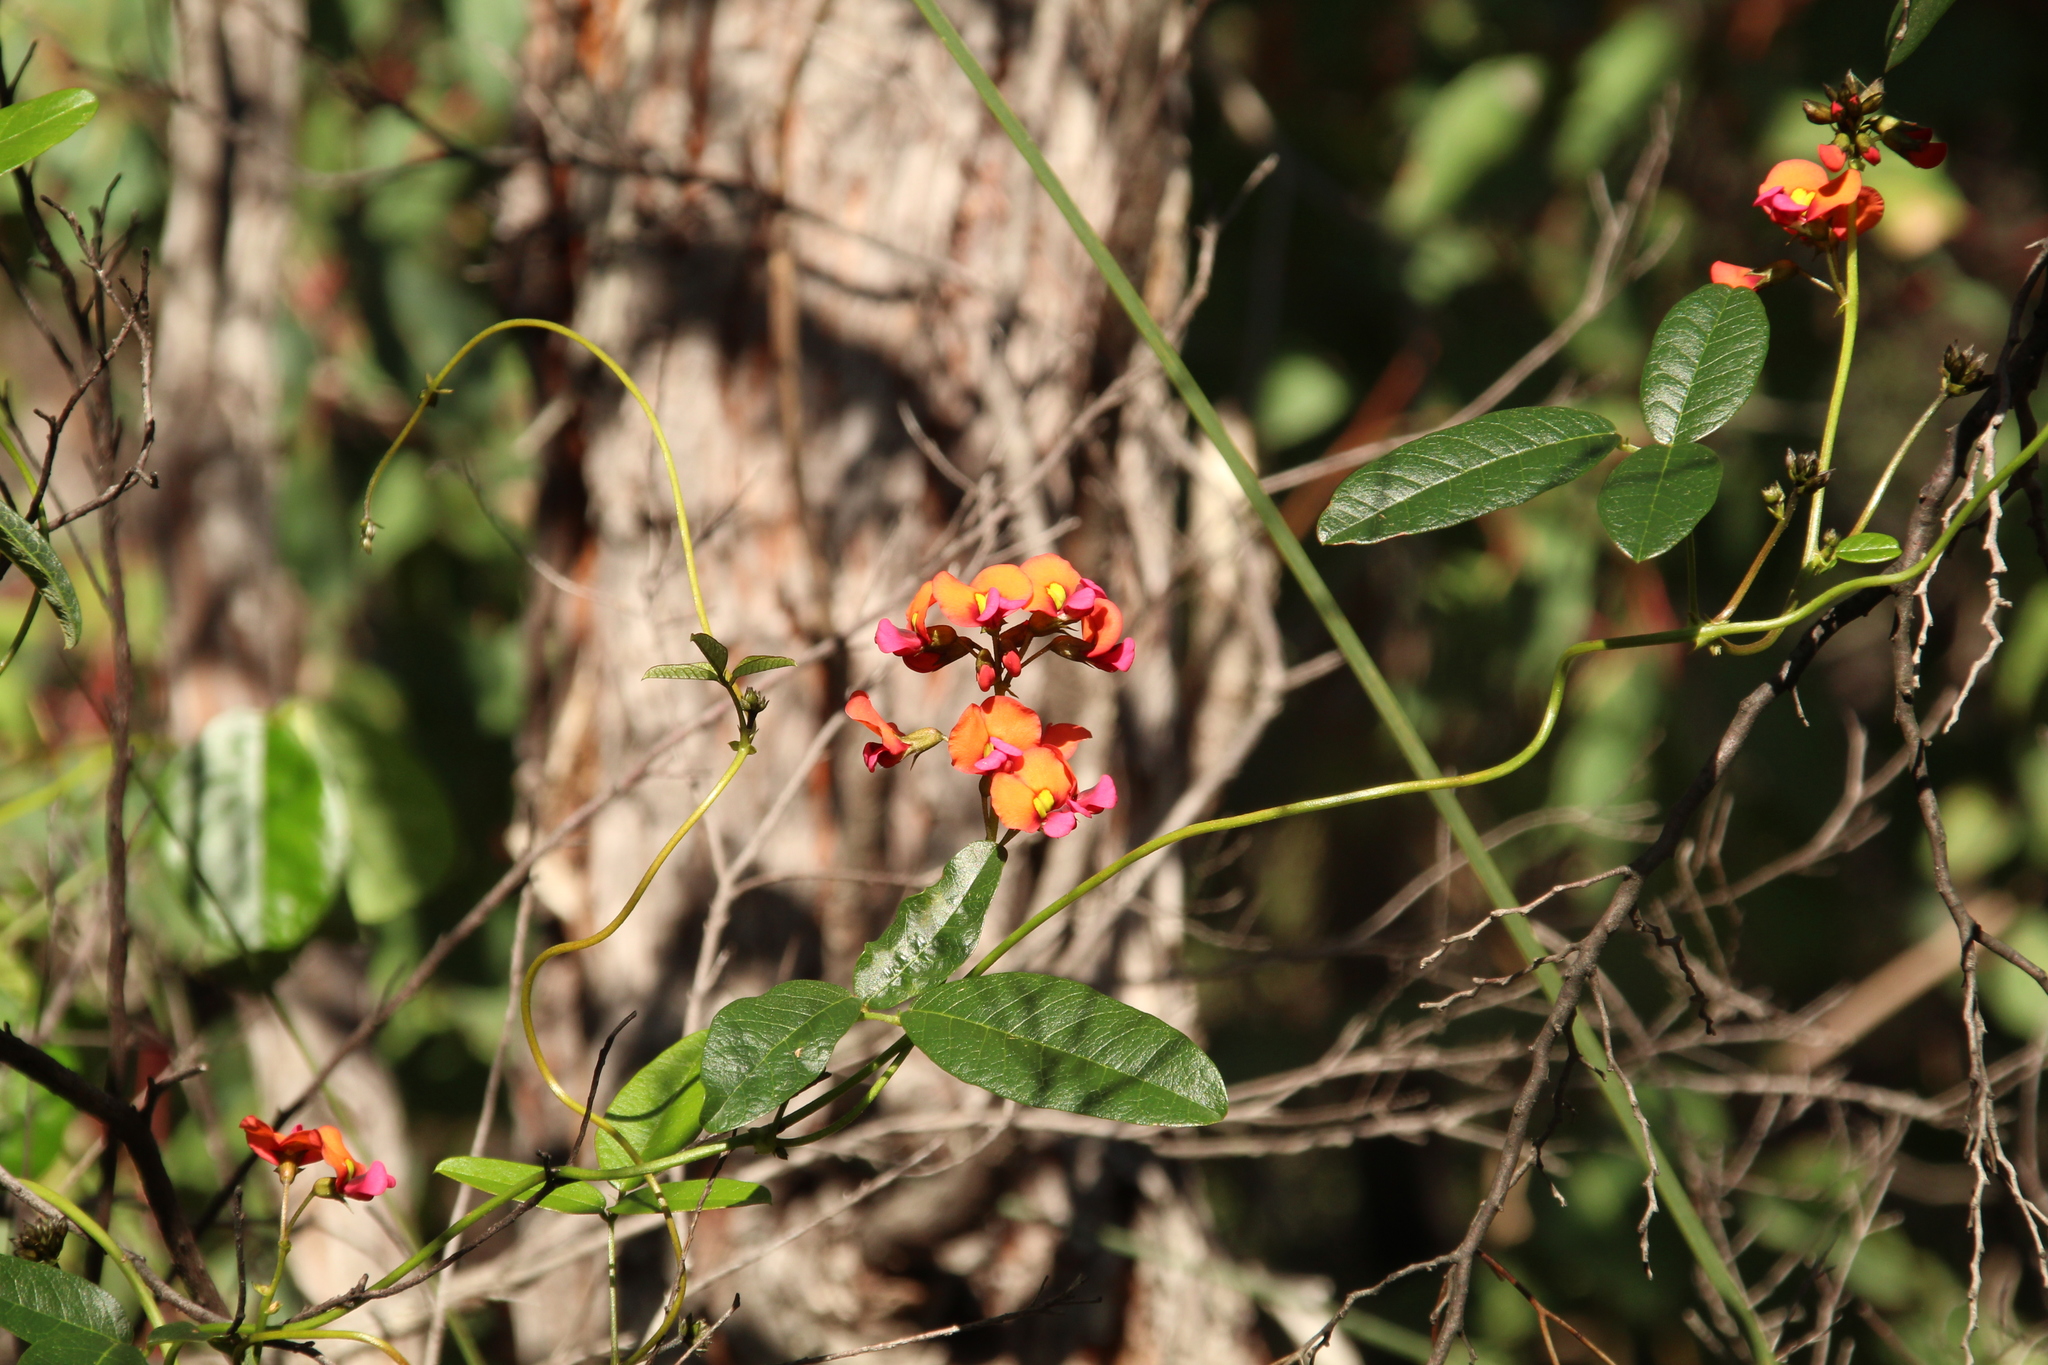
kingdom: Plantae
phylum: Tracheophyta
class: Magnoliopsida
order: Fabales
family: Fabaceae
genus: Kennedia
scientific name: Kennedia coccinea
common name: Coralvine
